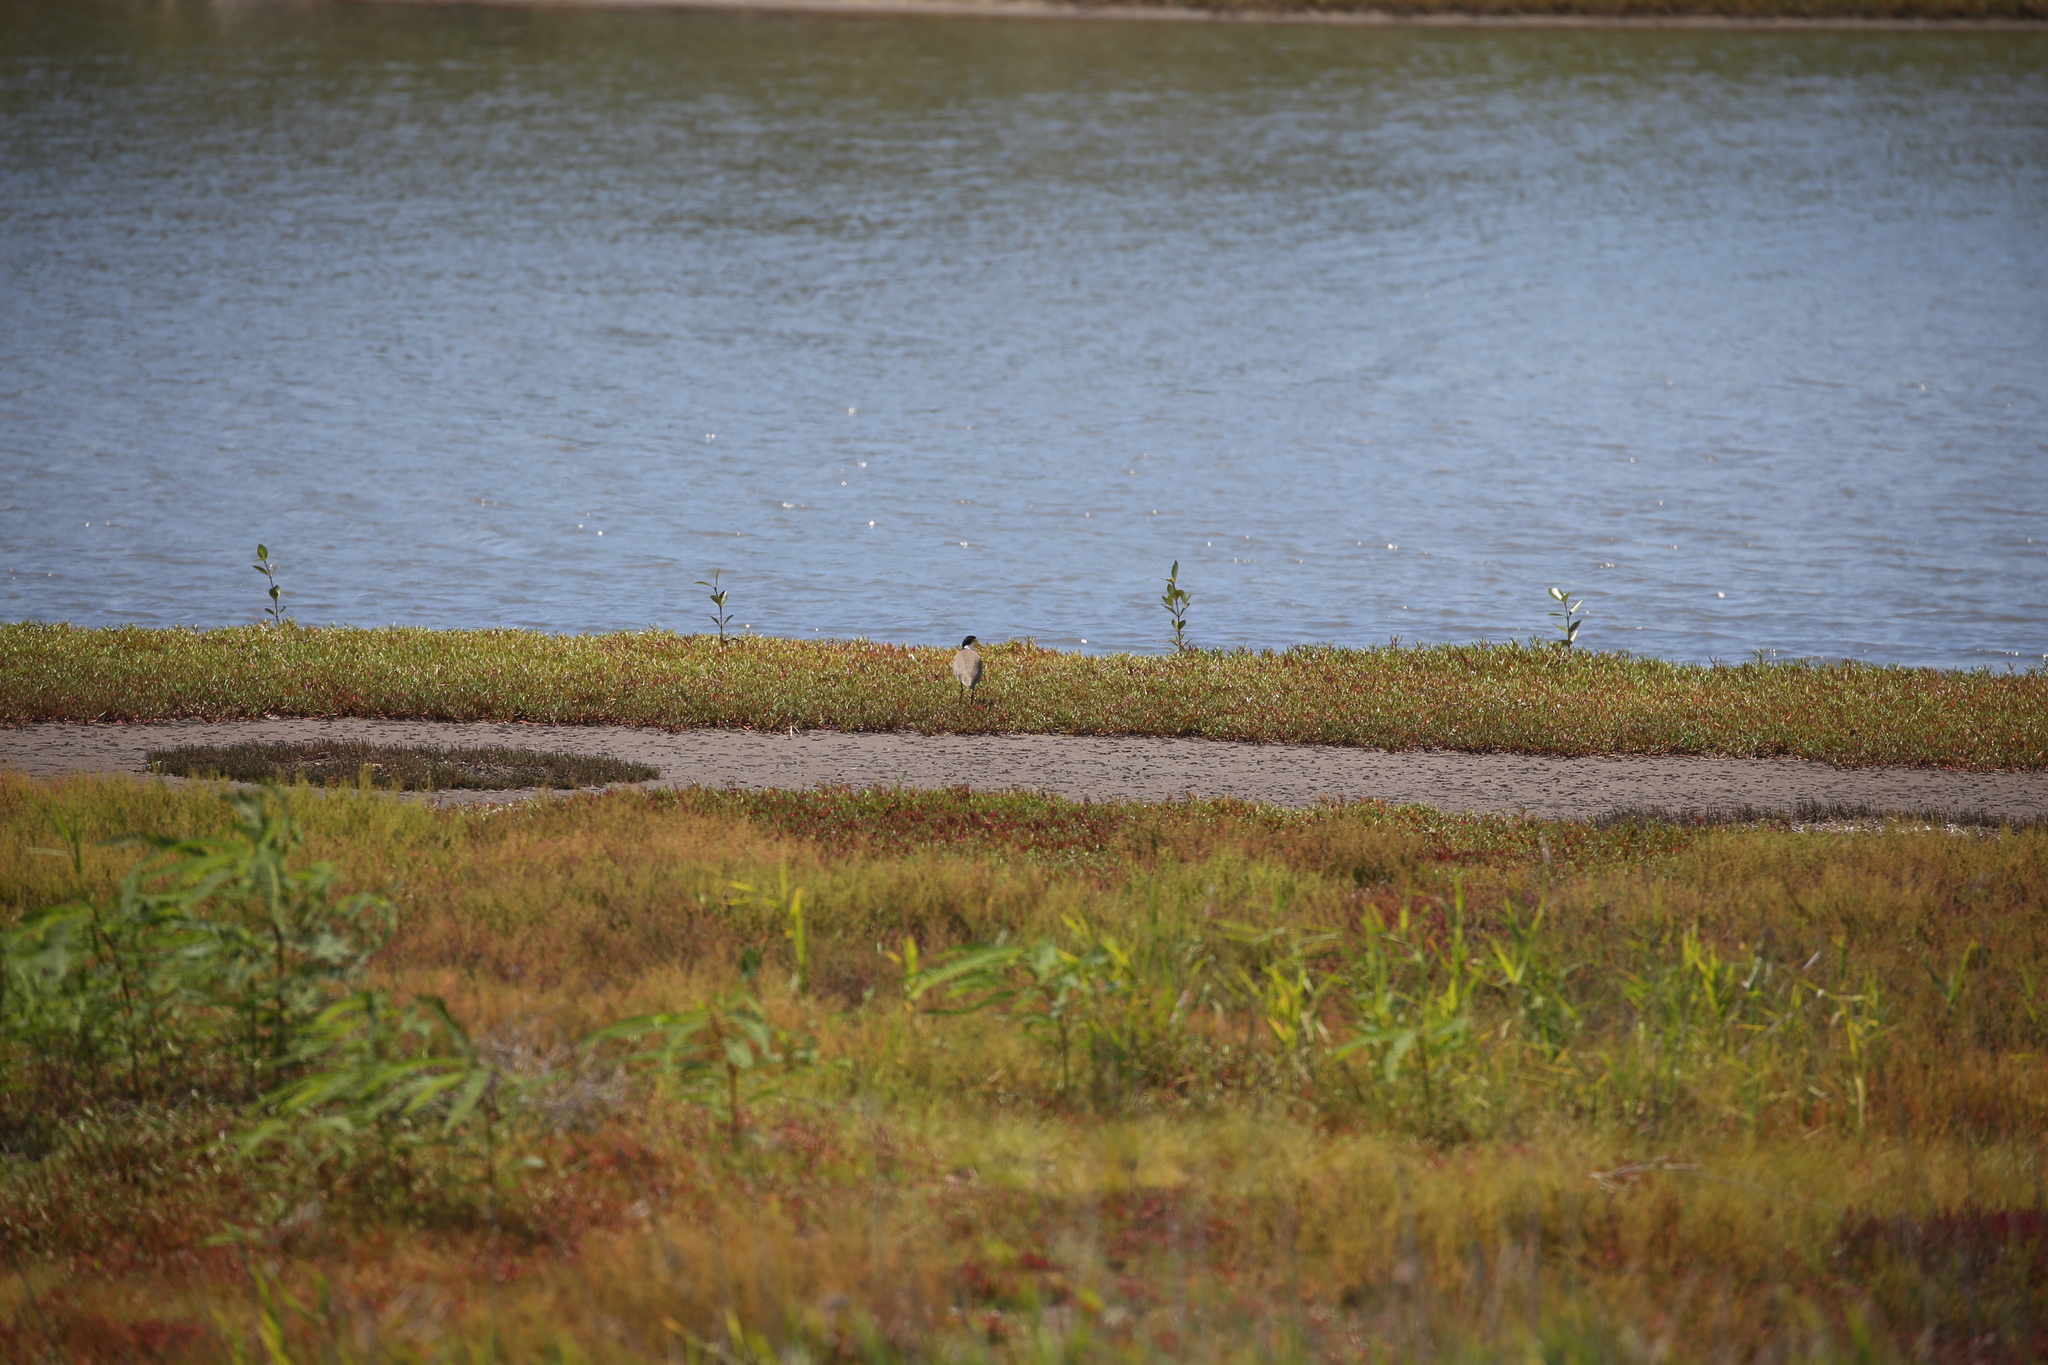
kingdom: Animalia
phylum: Chordata
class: Aves
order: Charadriiformes
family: Charadriidae
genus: Vanellus
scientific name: Vanellus miles
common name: Masked lapwing
